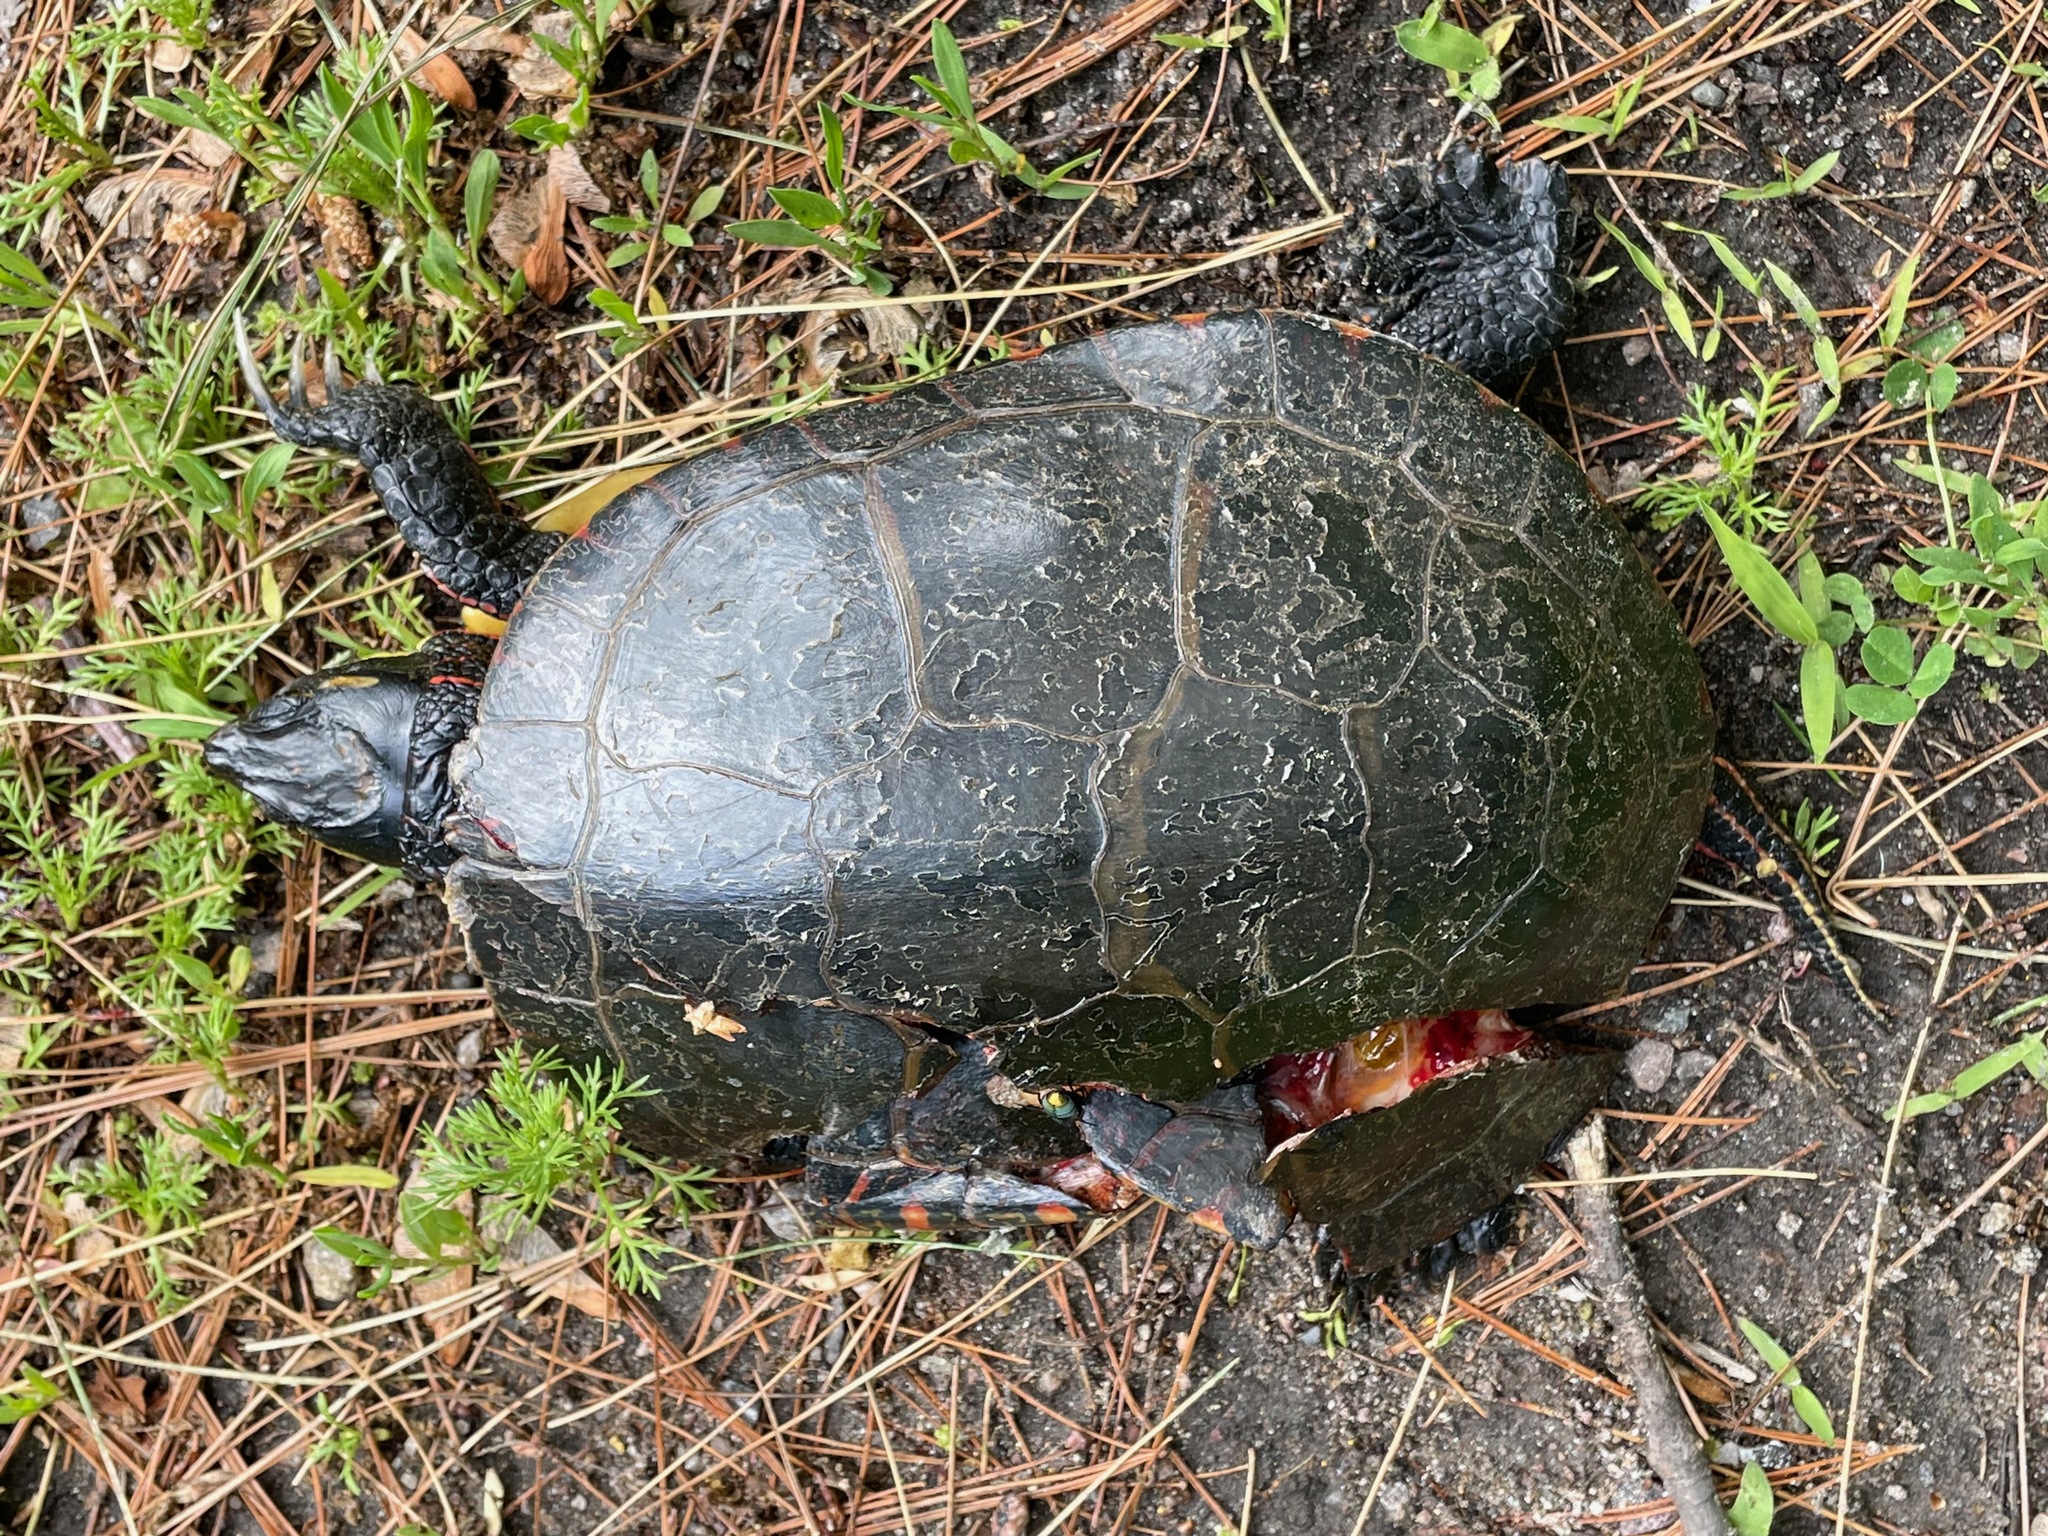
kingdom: Animalia
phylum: Chordata
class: Testudines
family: Emydidae
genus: Chrysemys
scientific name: Chrysemys picta
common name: Painted turtle
